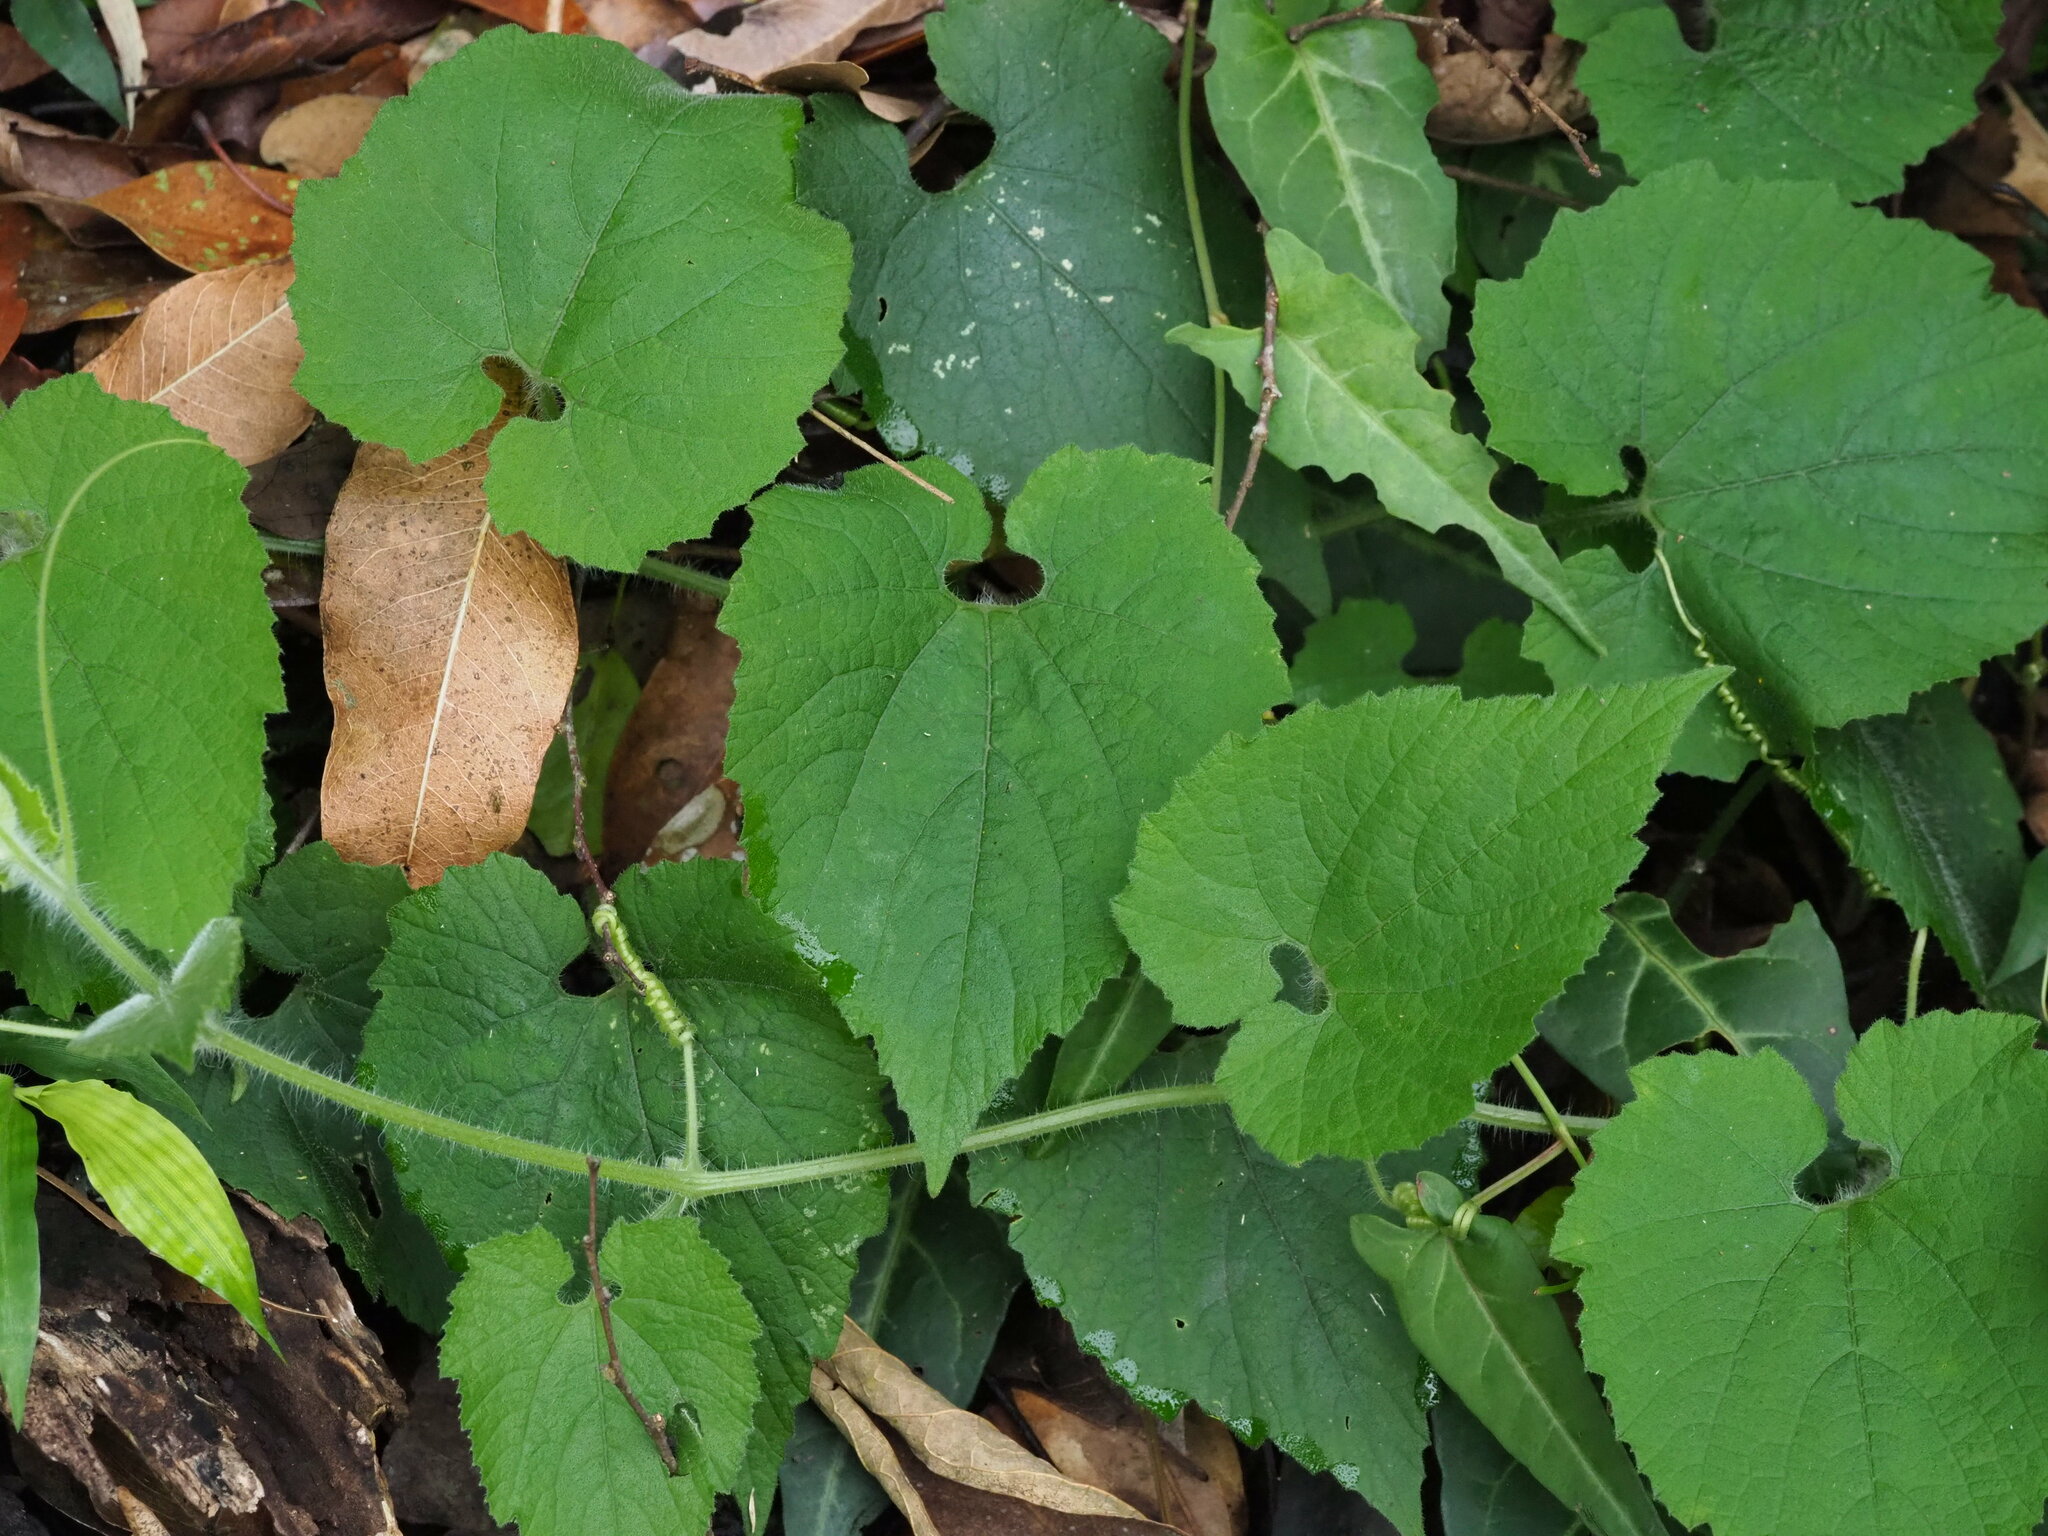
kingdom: Plantae
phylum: Tracheophyta
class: Magnoliopsida
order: Cucurbitales
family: Cucurbitaceae
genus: Thladiantha
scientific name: Thladiantha nudiflora
